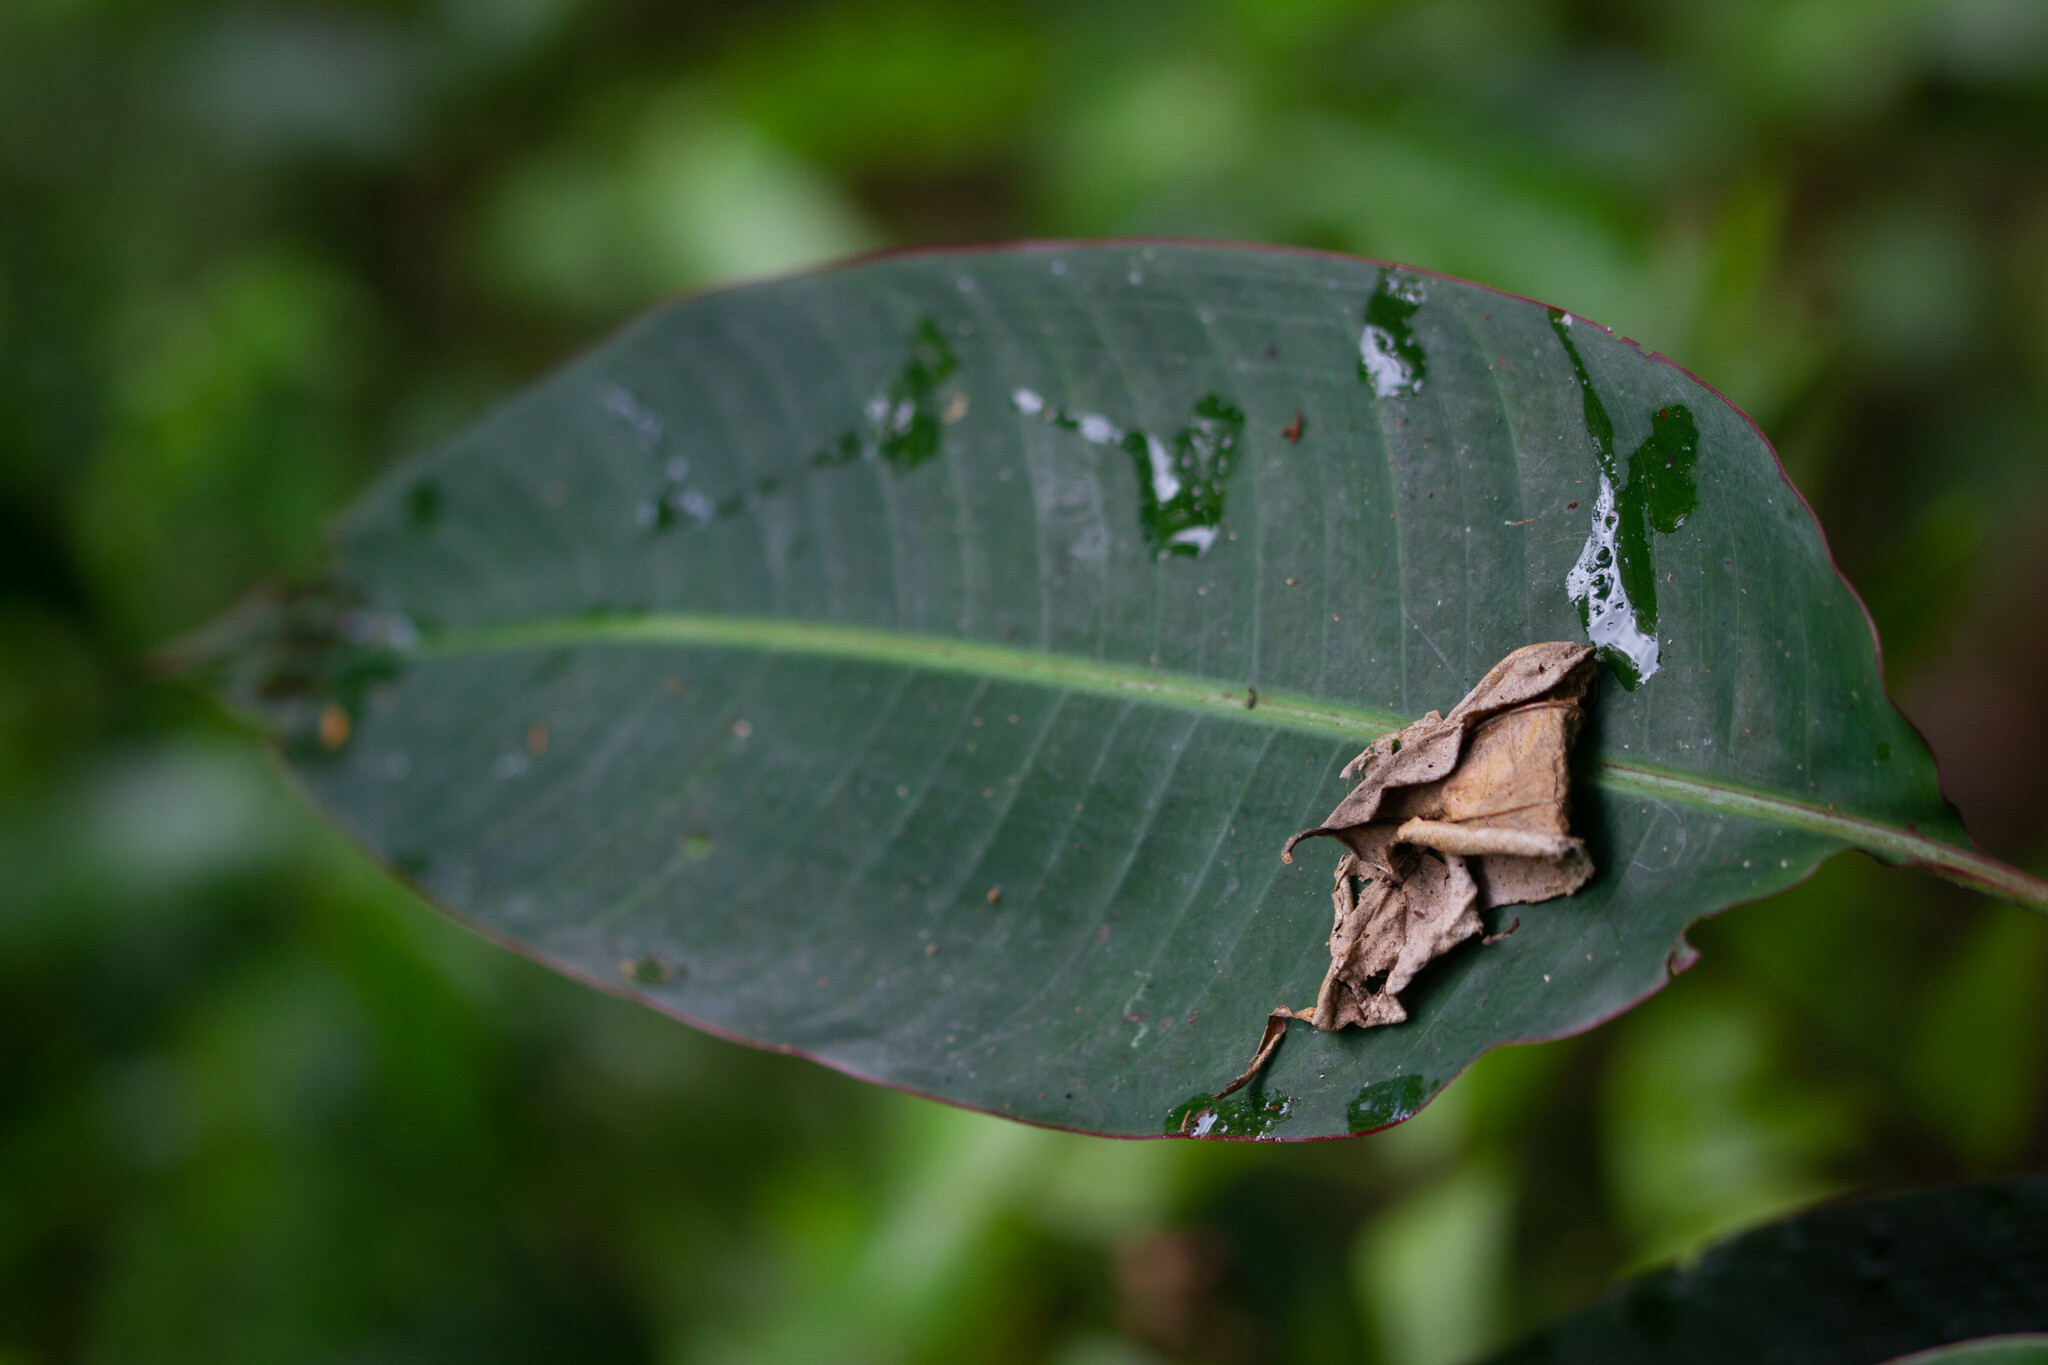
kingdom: Plantae
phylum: Tracheophyta
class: Liliopsida
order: Zingiberales
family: Heliconiaceae
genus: Heliconia
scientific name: Heliconia
